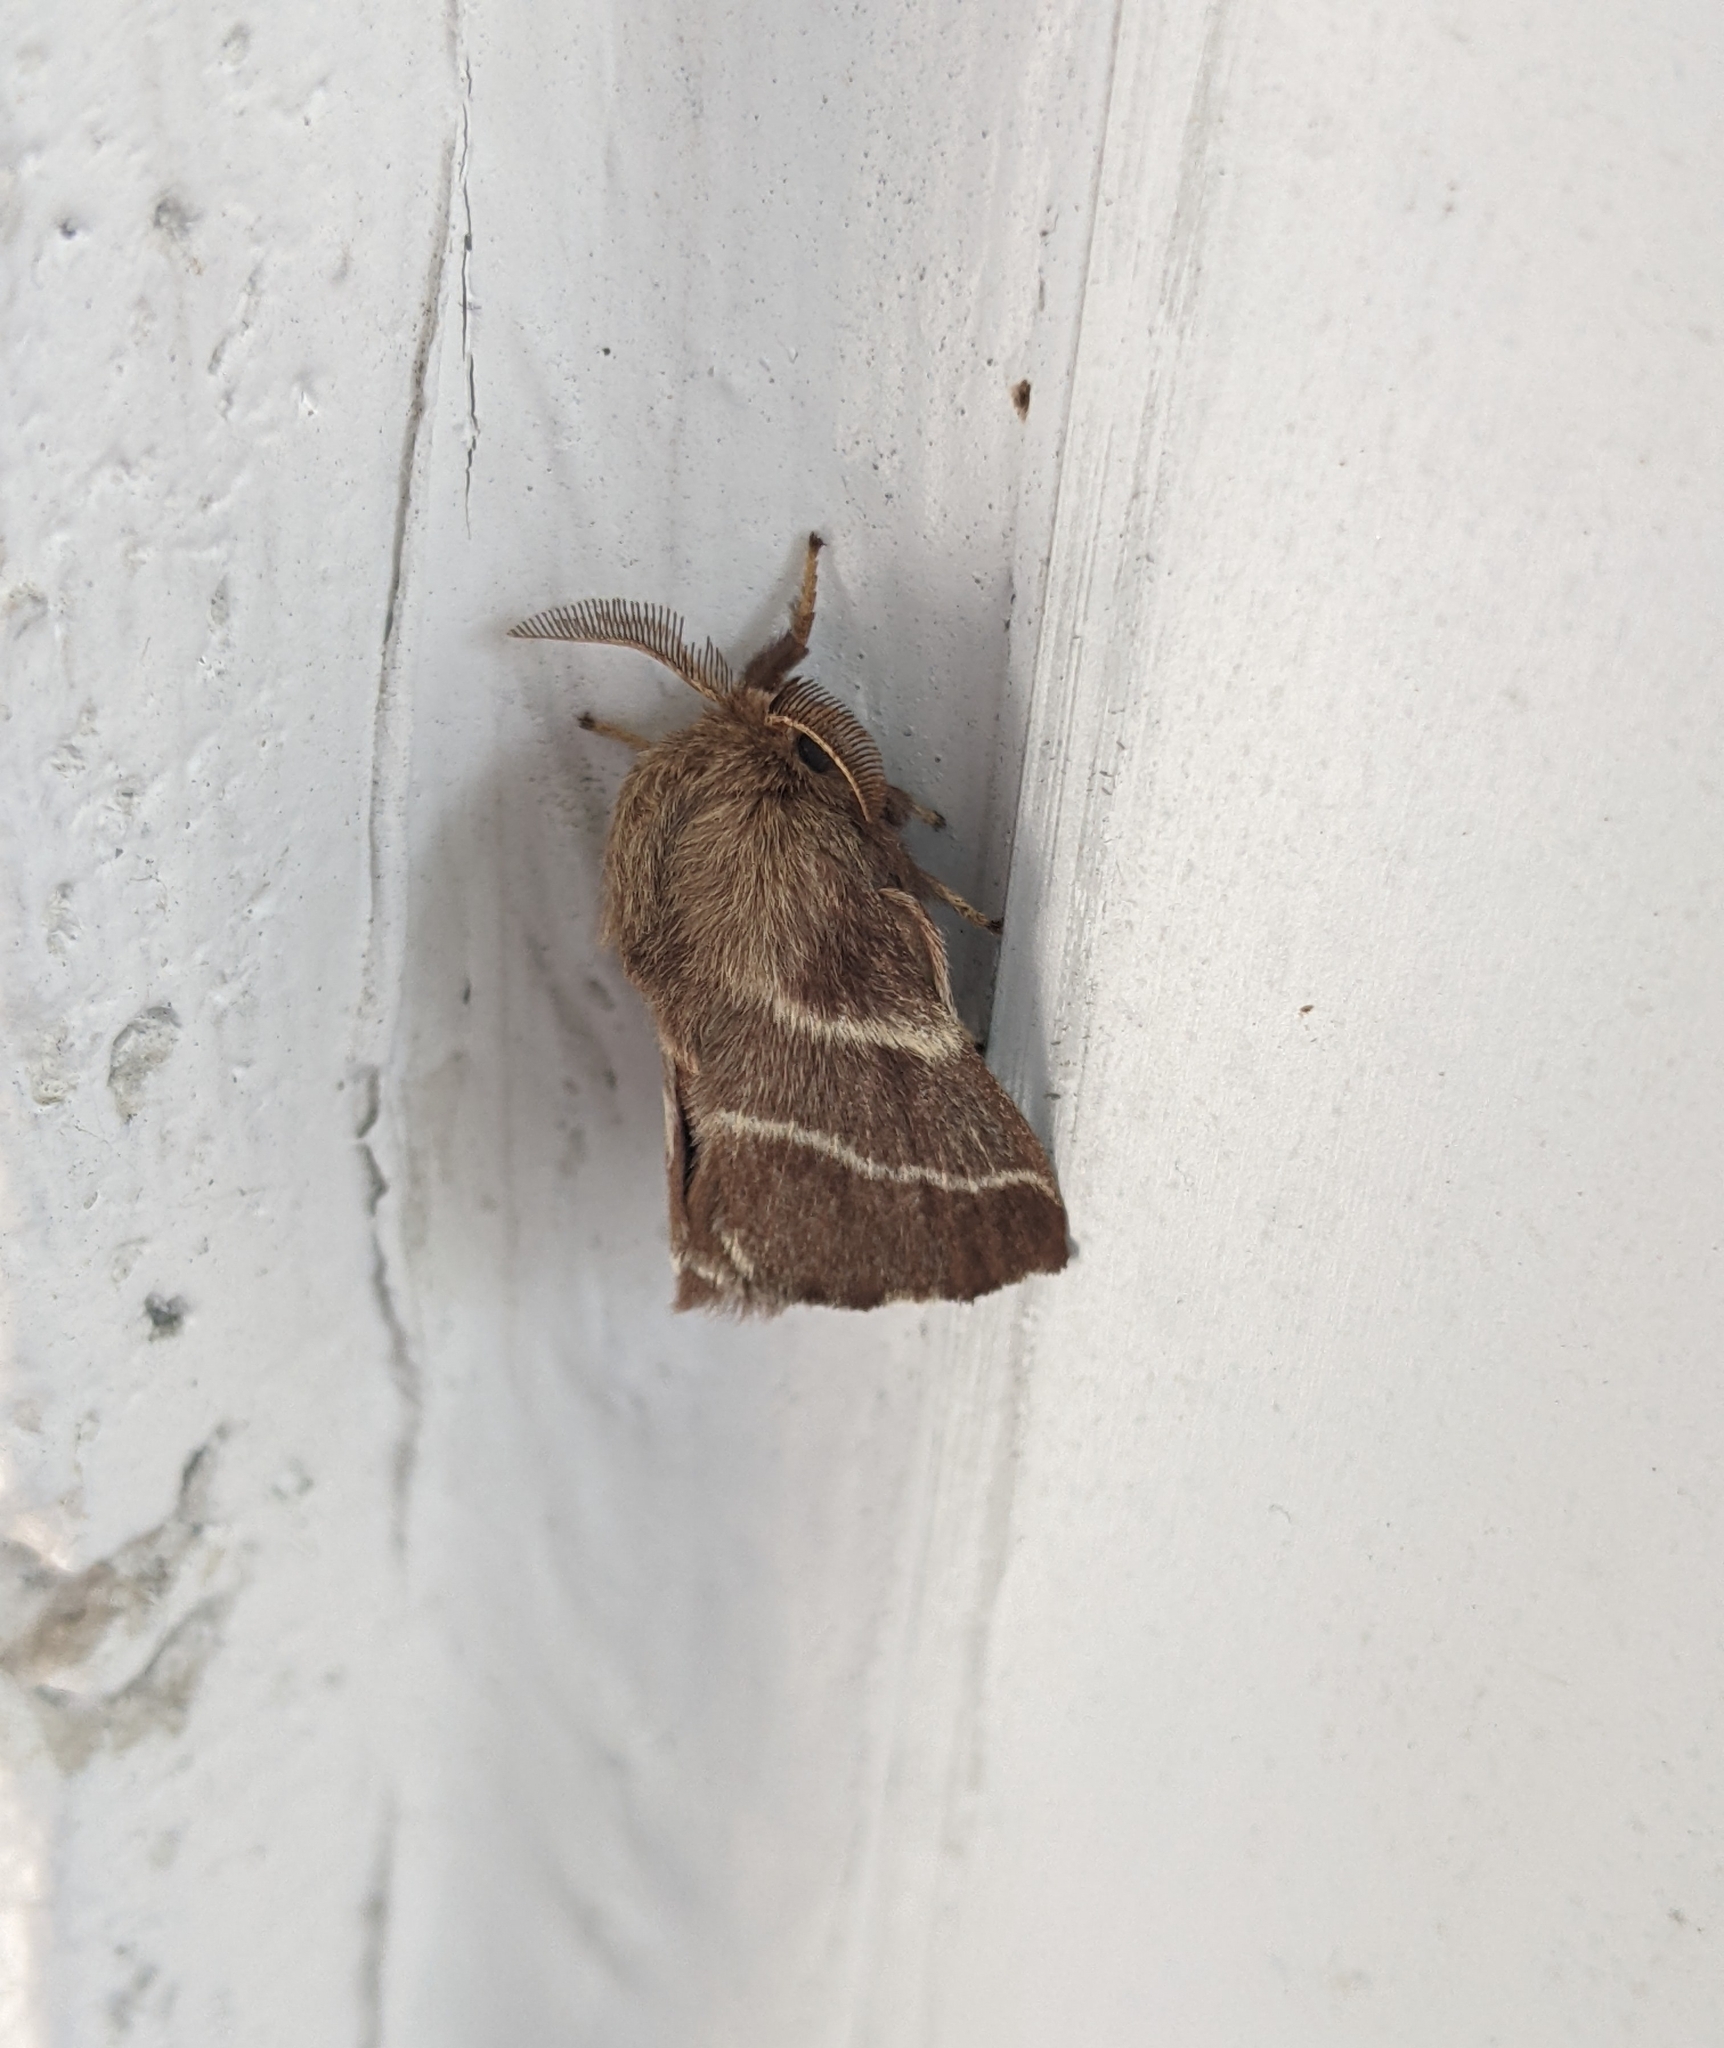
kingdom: Animalia
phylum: Arthropoda
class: Insecta
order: Lepidoptera
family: Lasiocampidae
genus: Malacosoma
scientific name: Malacosoma americana
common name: Eastern tent caterpillar moth
